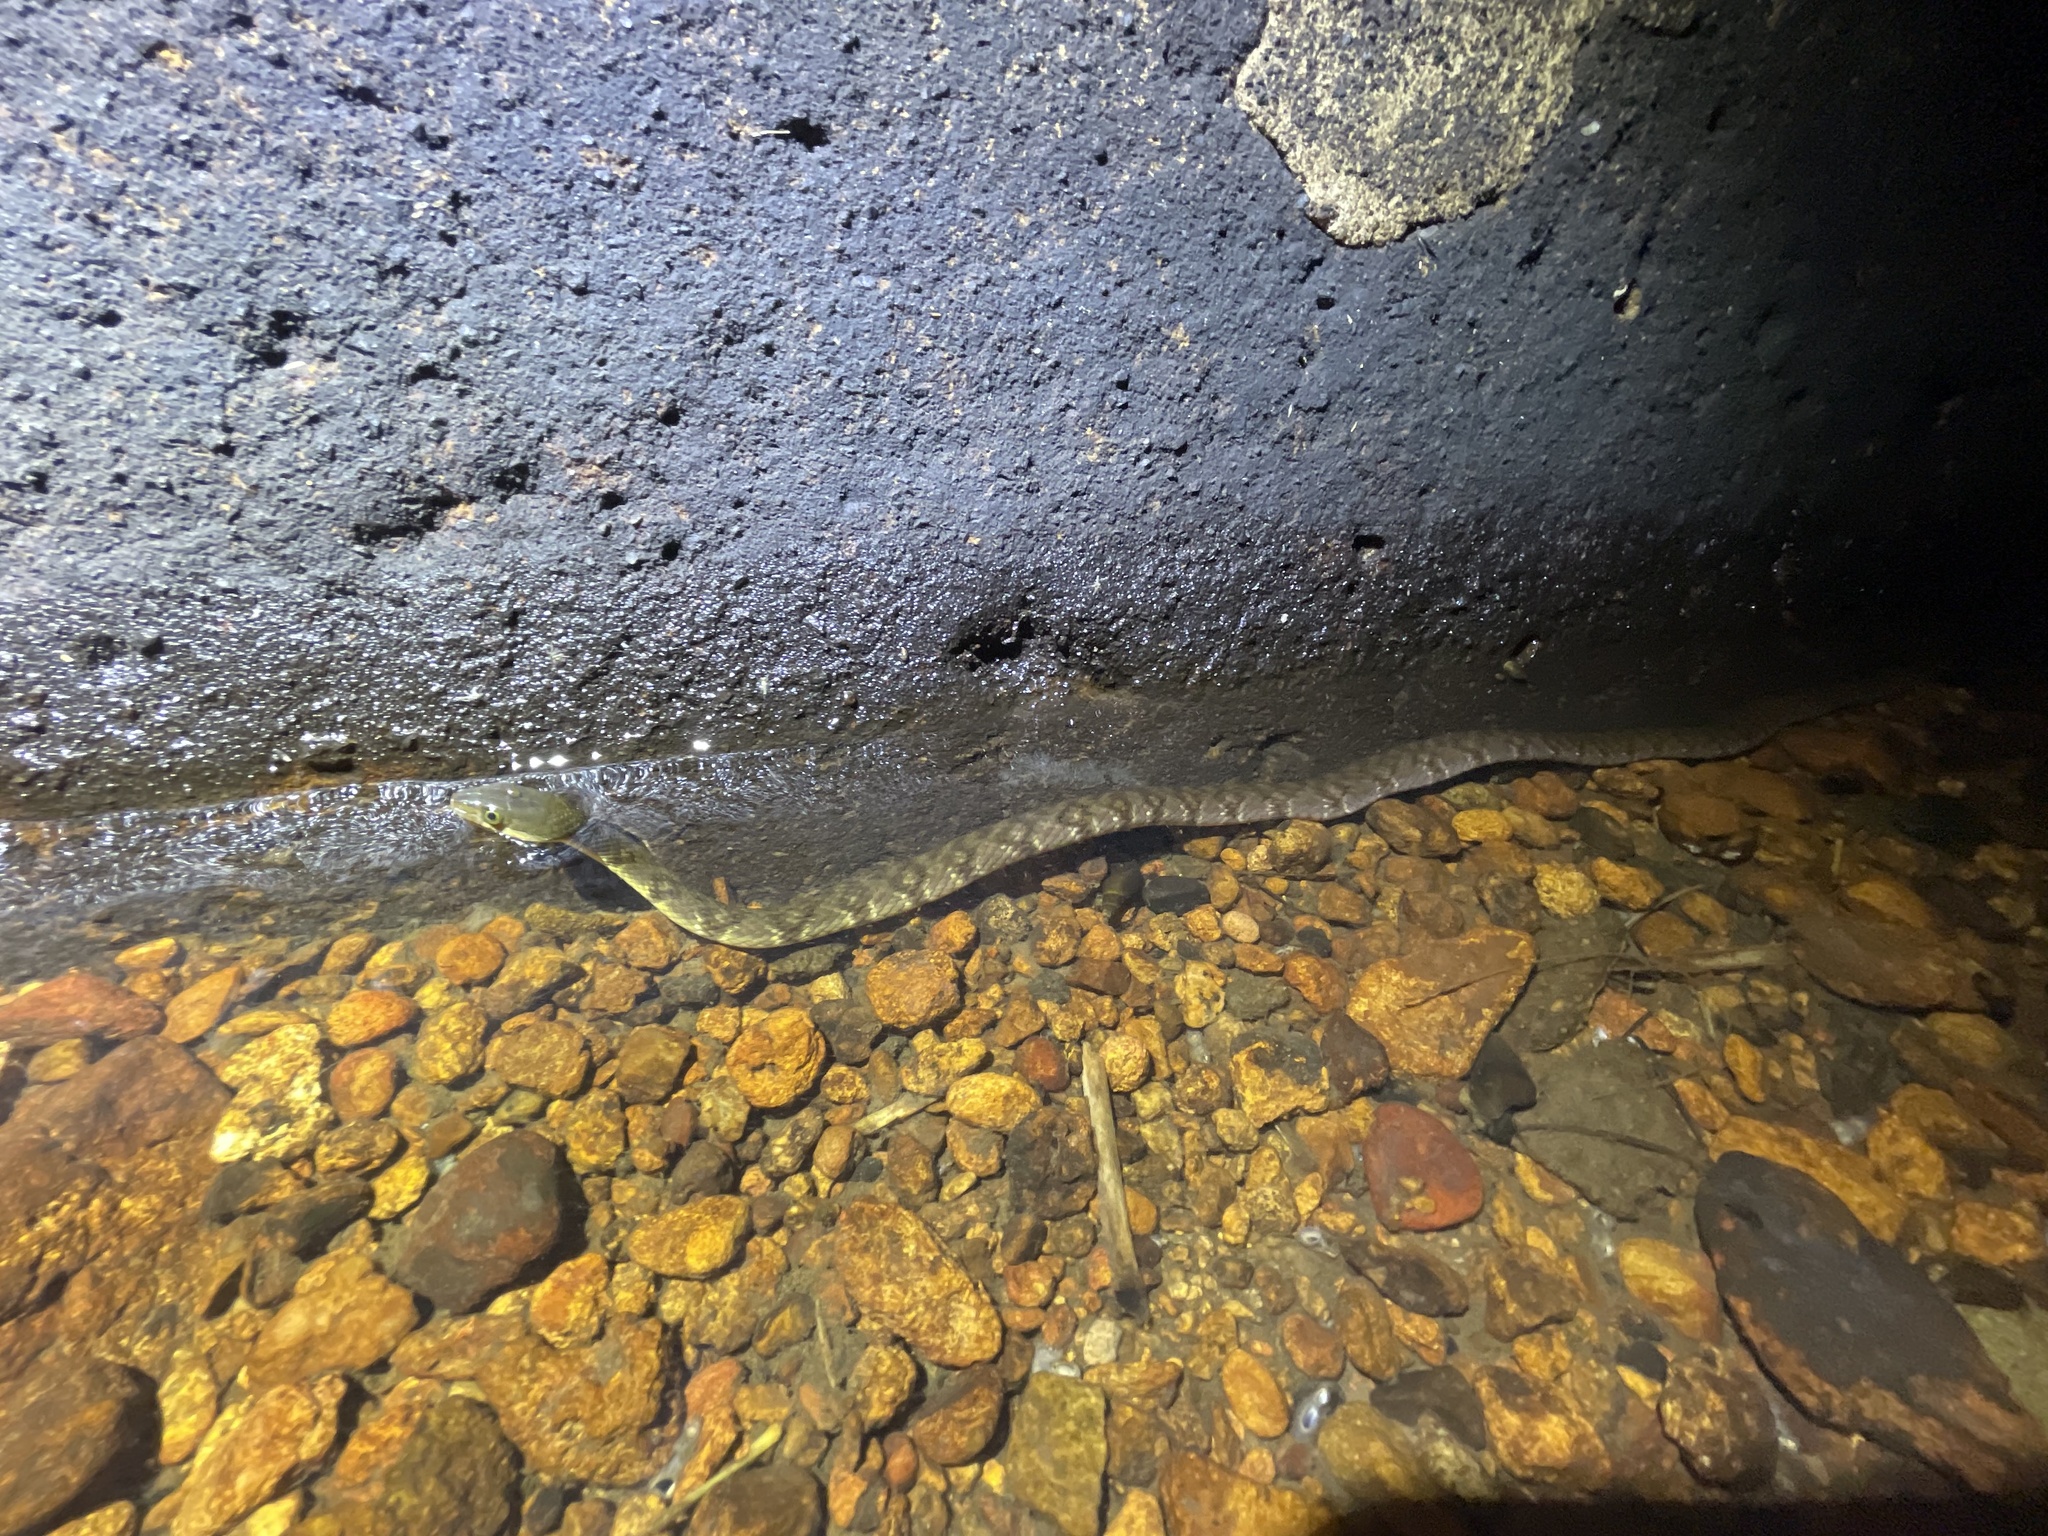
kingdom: Animalia
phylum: Chordata
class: Squamata
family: Colubridae
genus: Trimerodytes
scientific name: Trimerodytes percarinatus
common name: Eastern water snake
